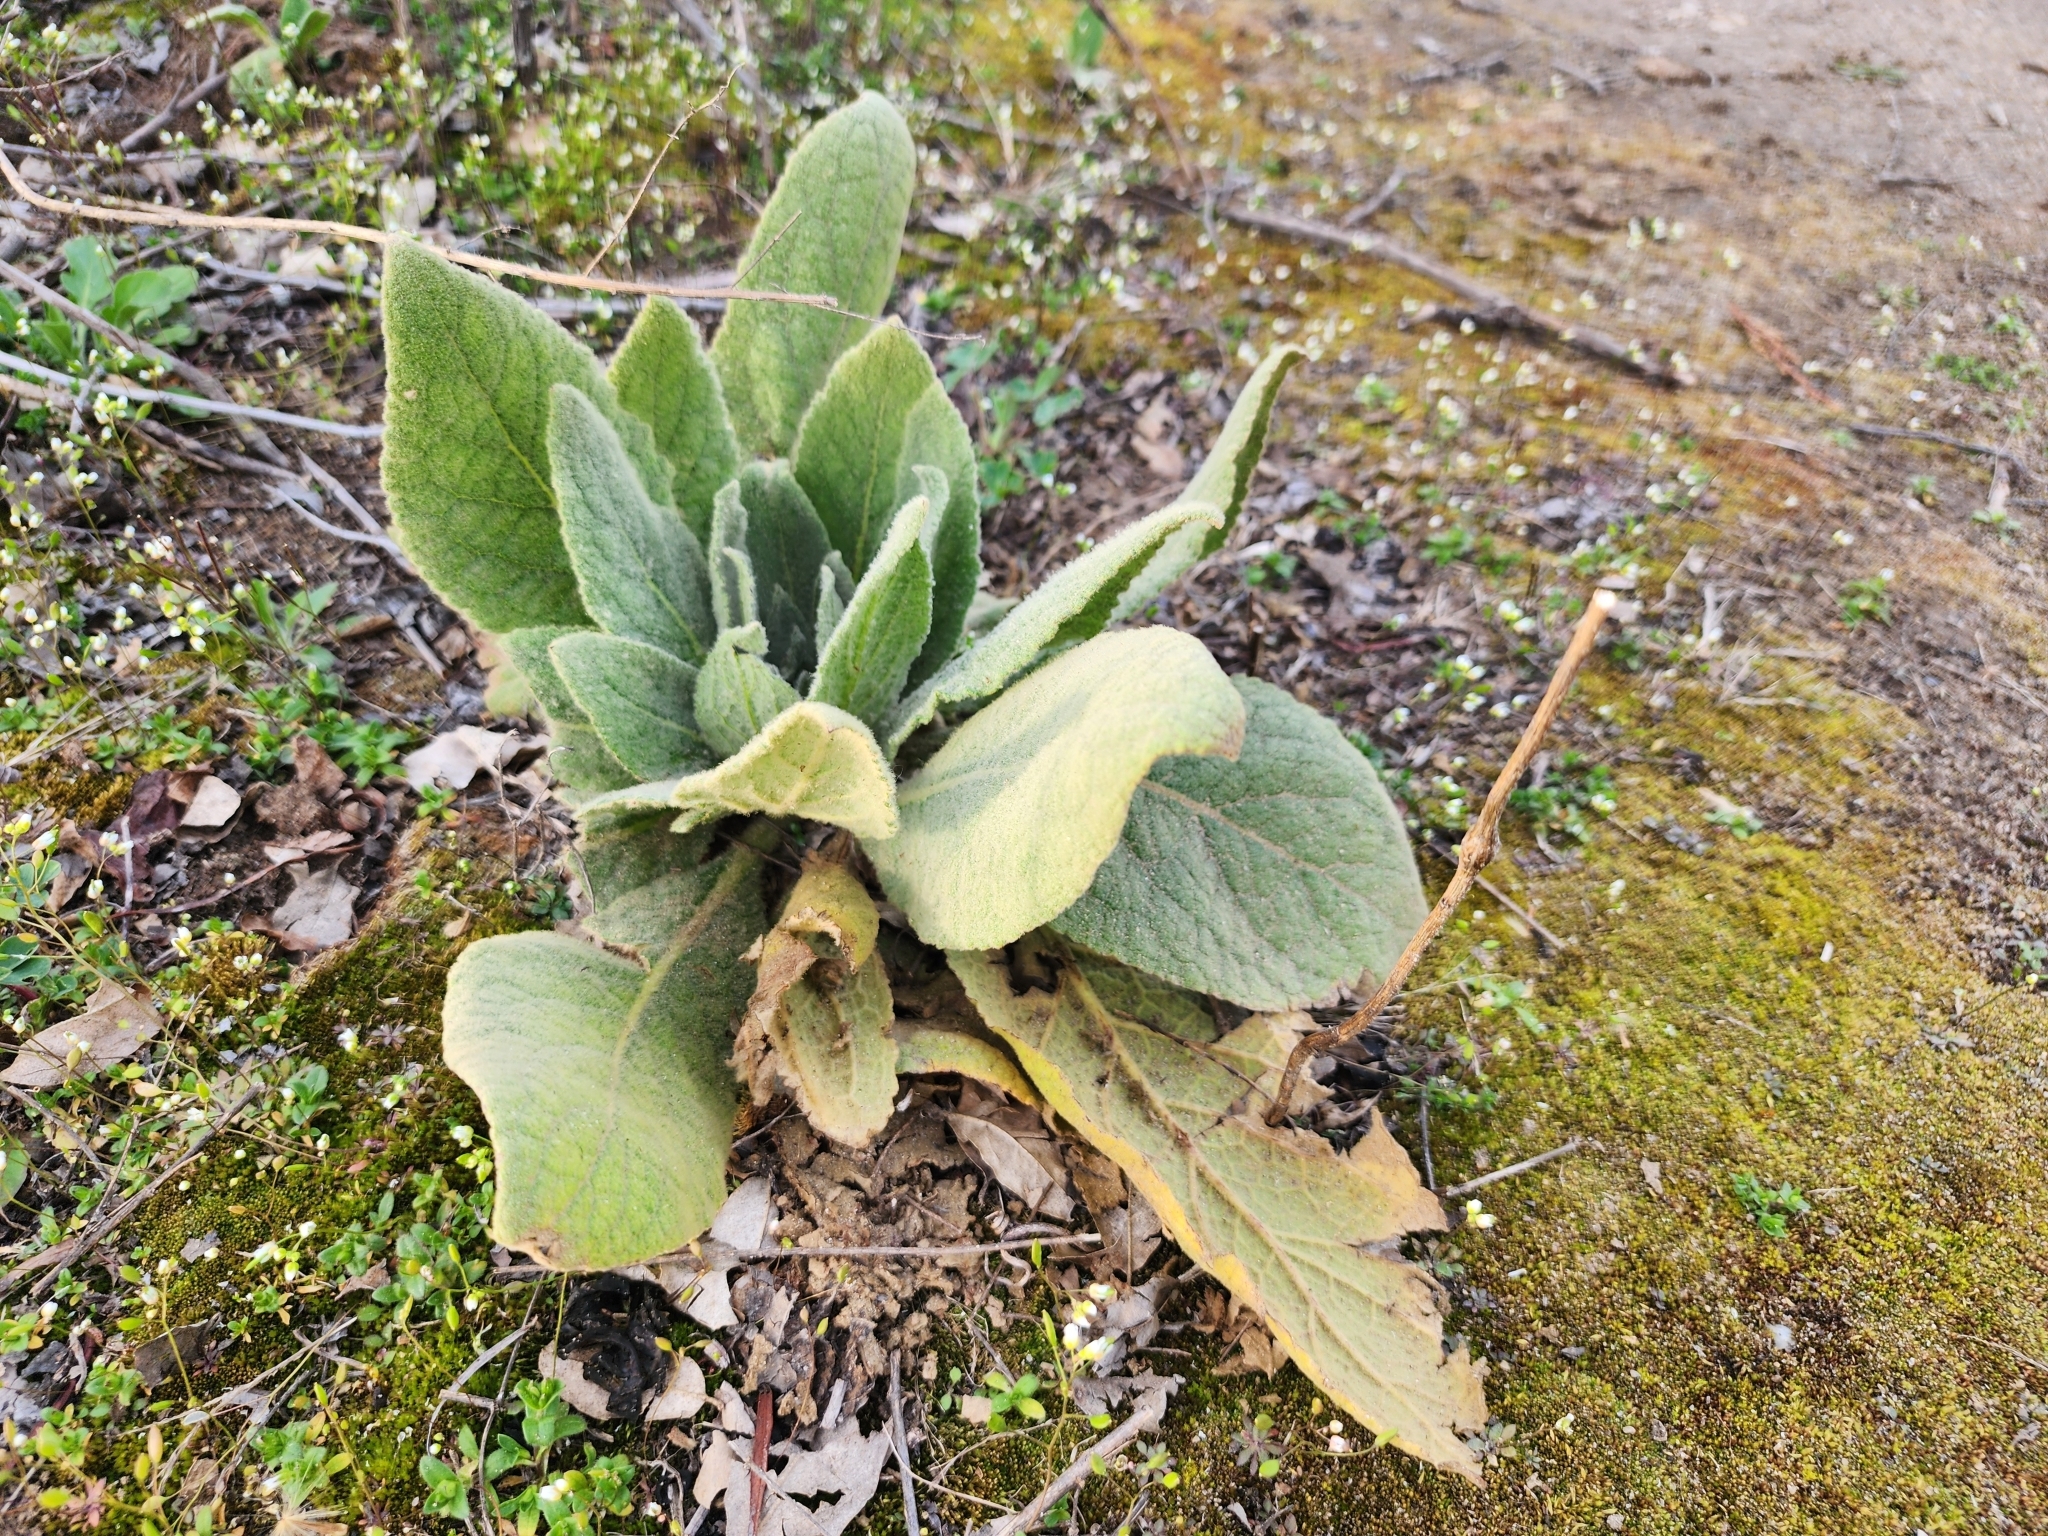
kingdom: Plantae
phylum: Tracheophyta
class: Magnoliopsida
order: Lamiales
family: Scrophulariaceae
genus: Verbascum
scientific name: Verbascum thapsus
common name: Common mullein
